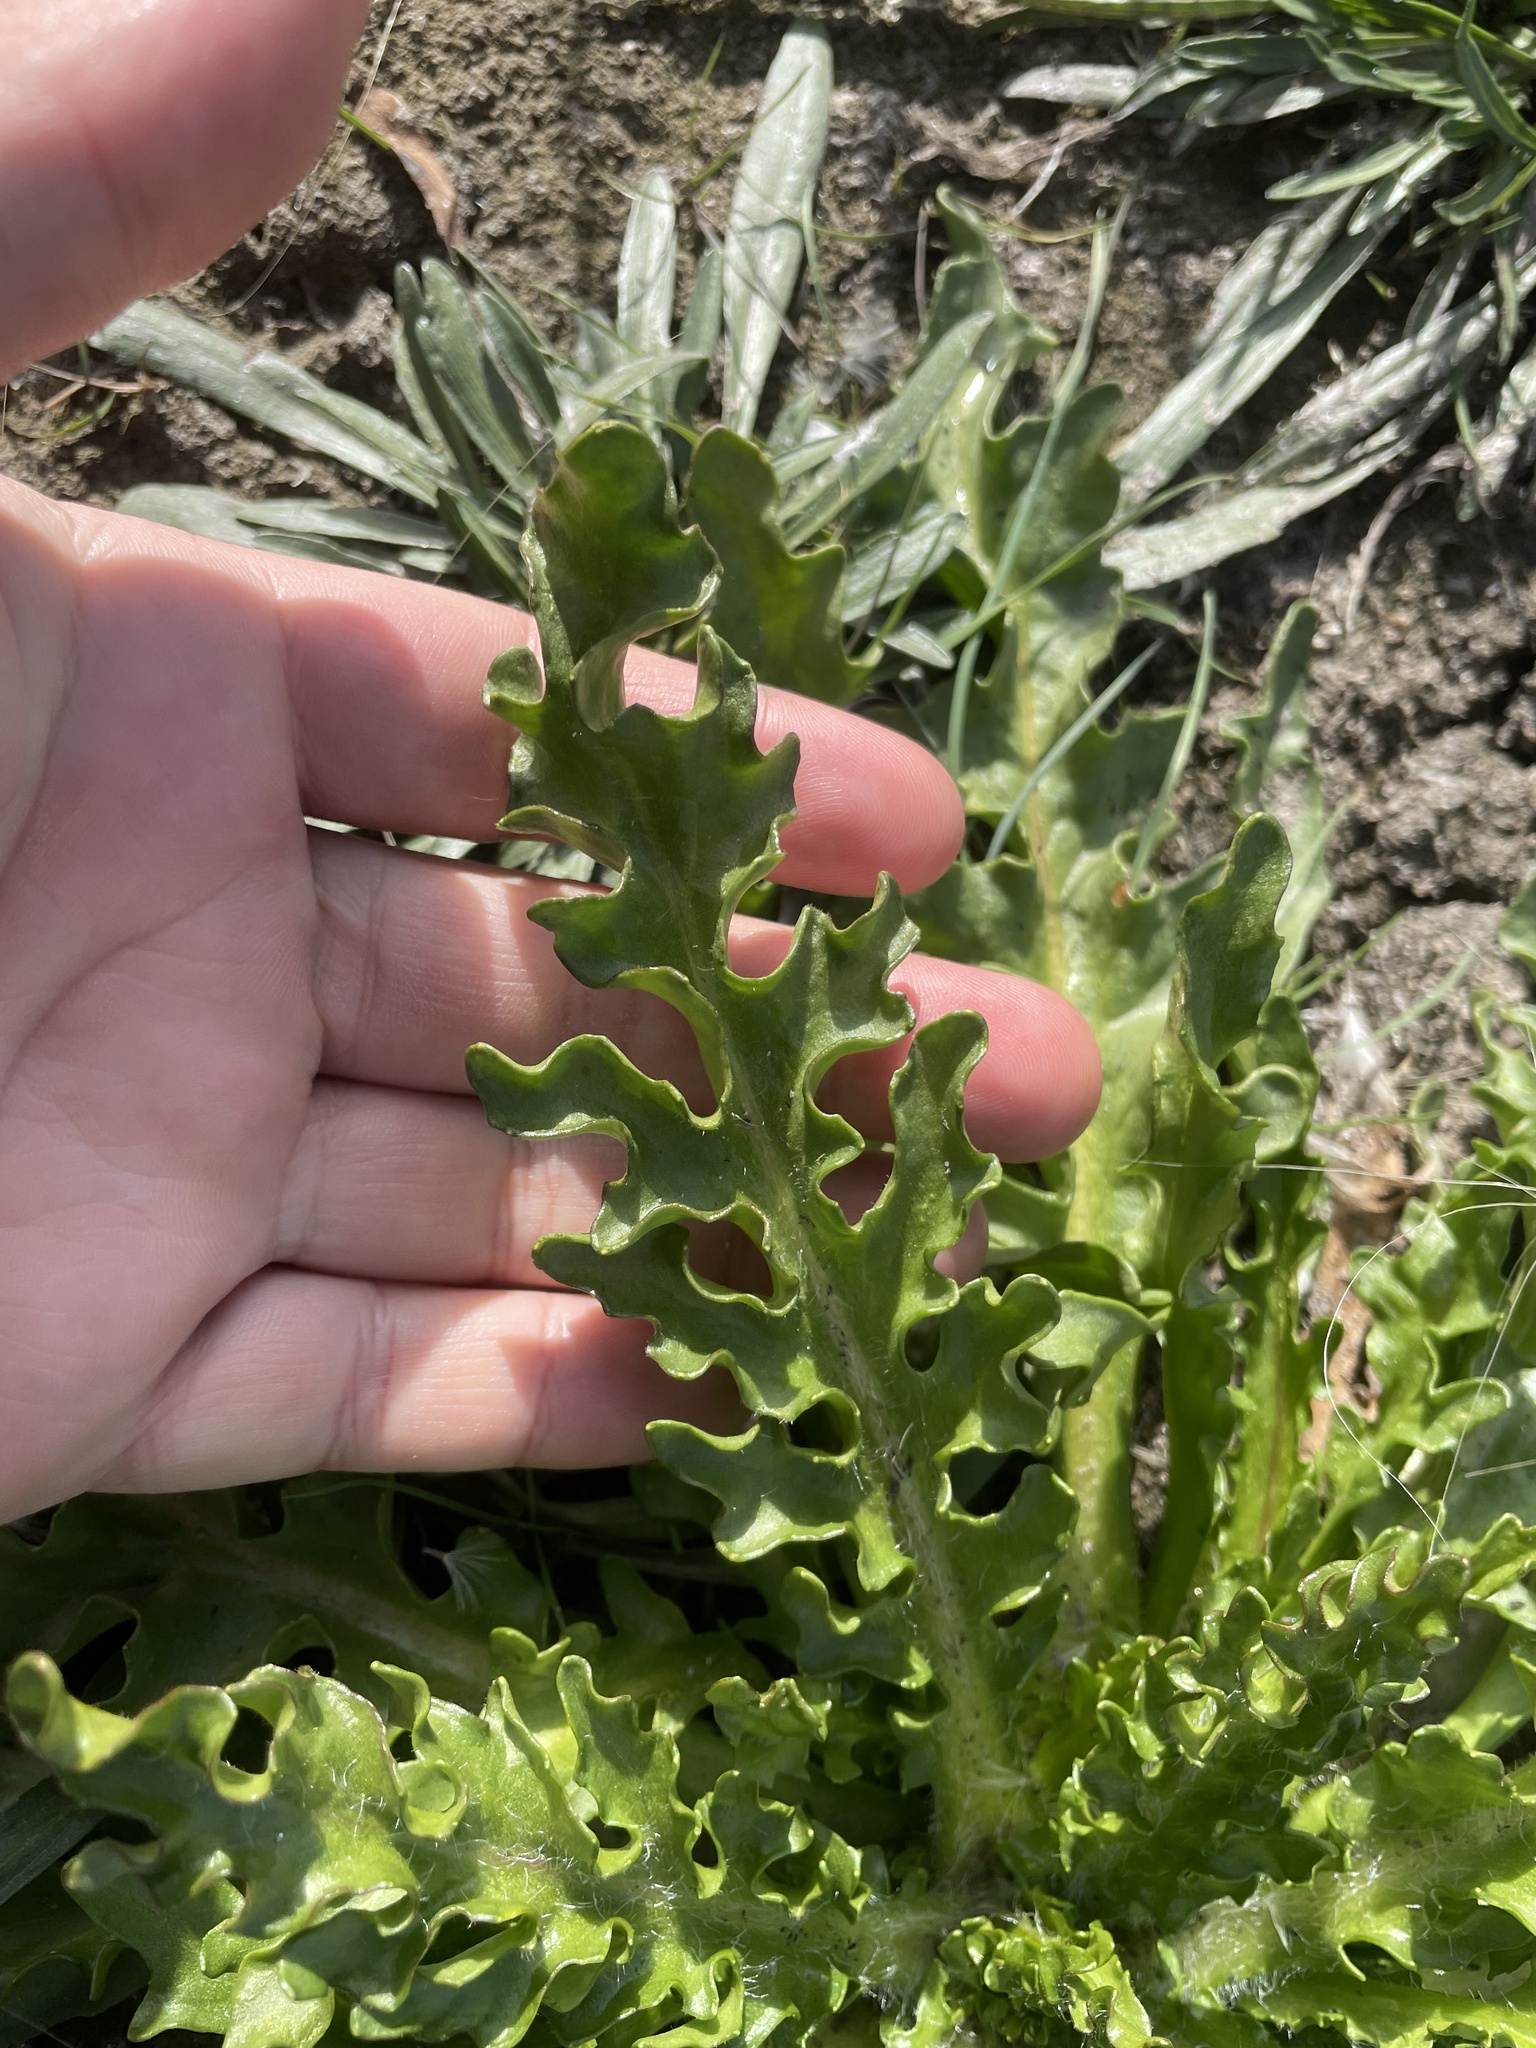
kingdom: Plantae
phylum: Tracheophyta
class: Magnoliopsida
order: Asterales
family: Asteraceae
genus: Tephroseris
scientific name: Tephroseris palustris
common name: Marsh fleawort
